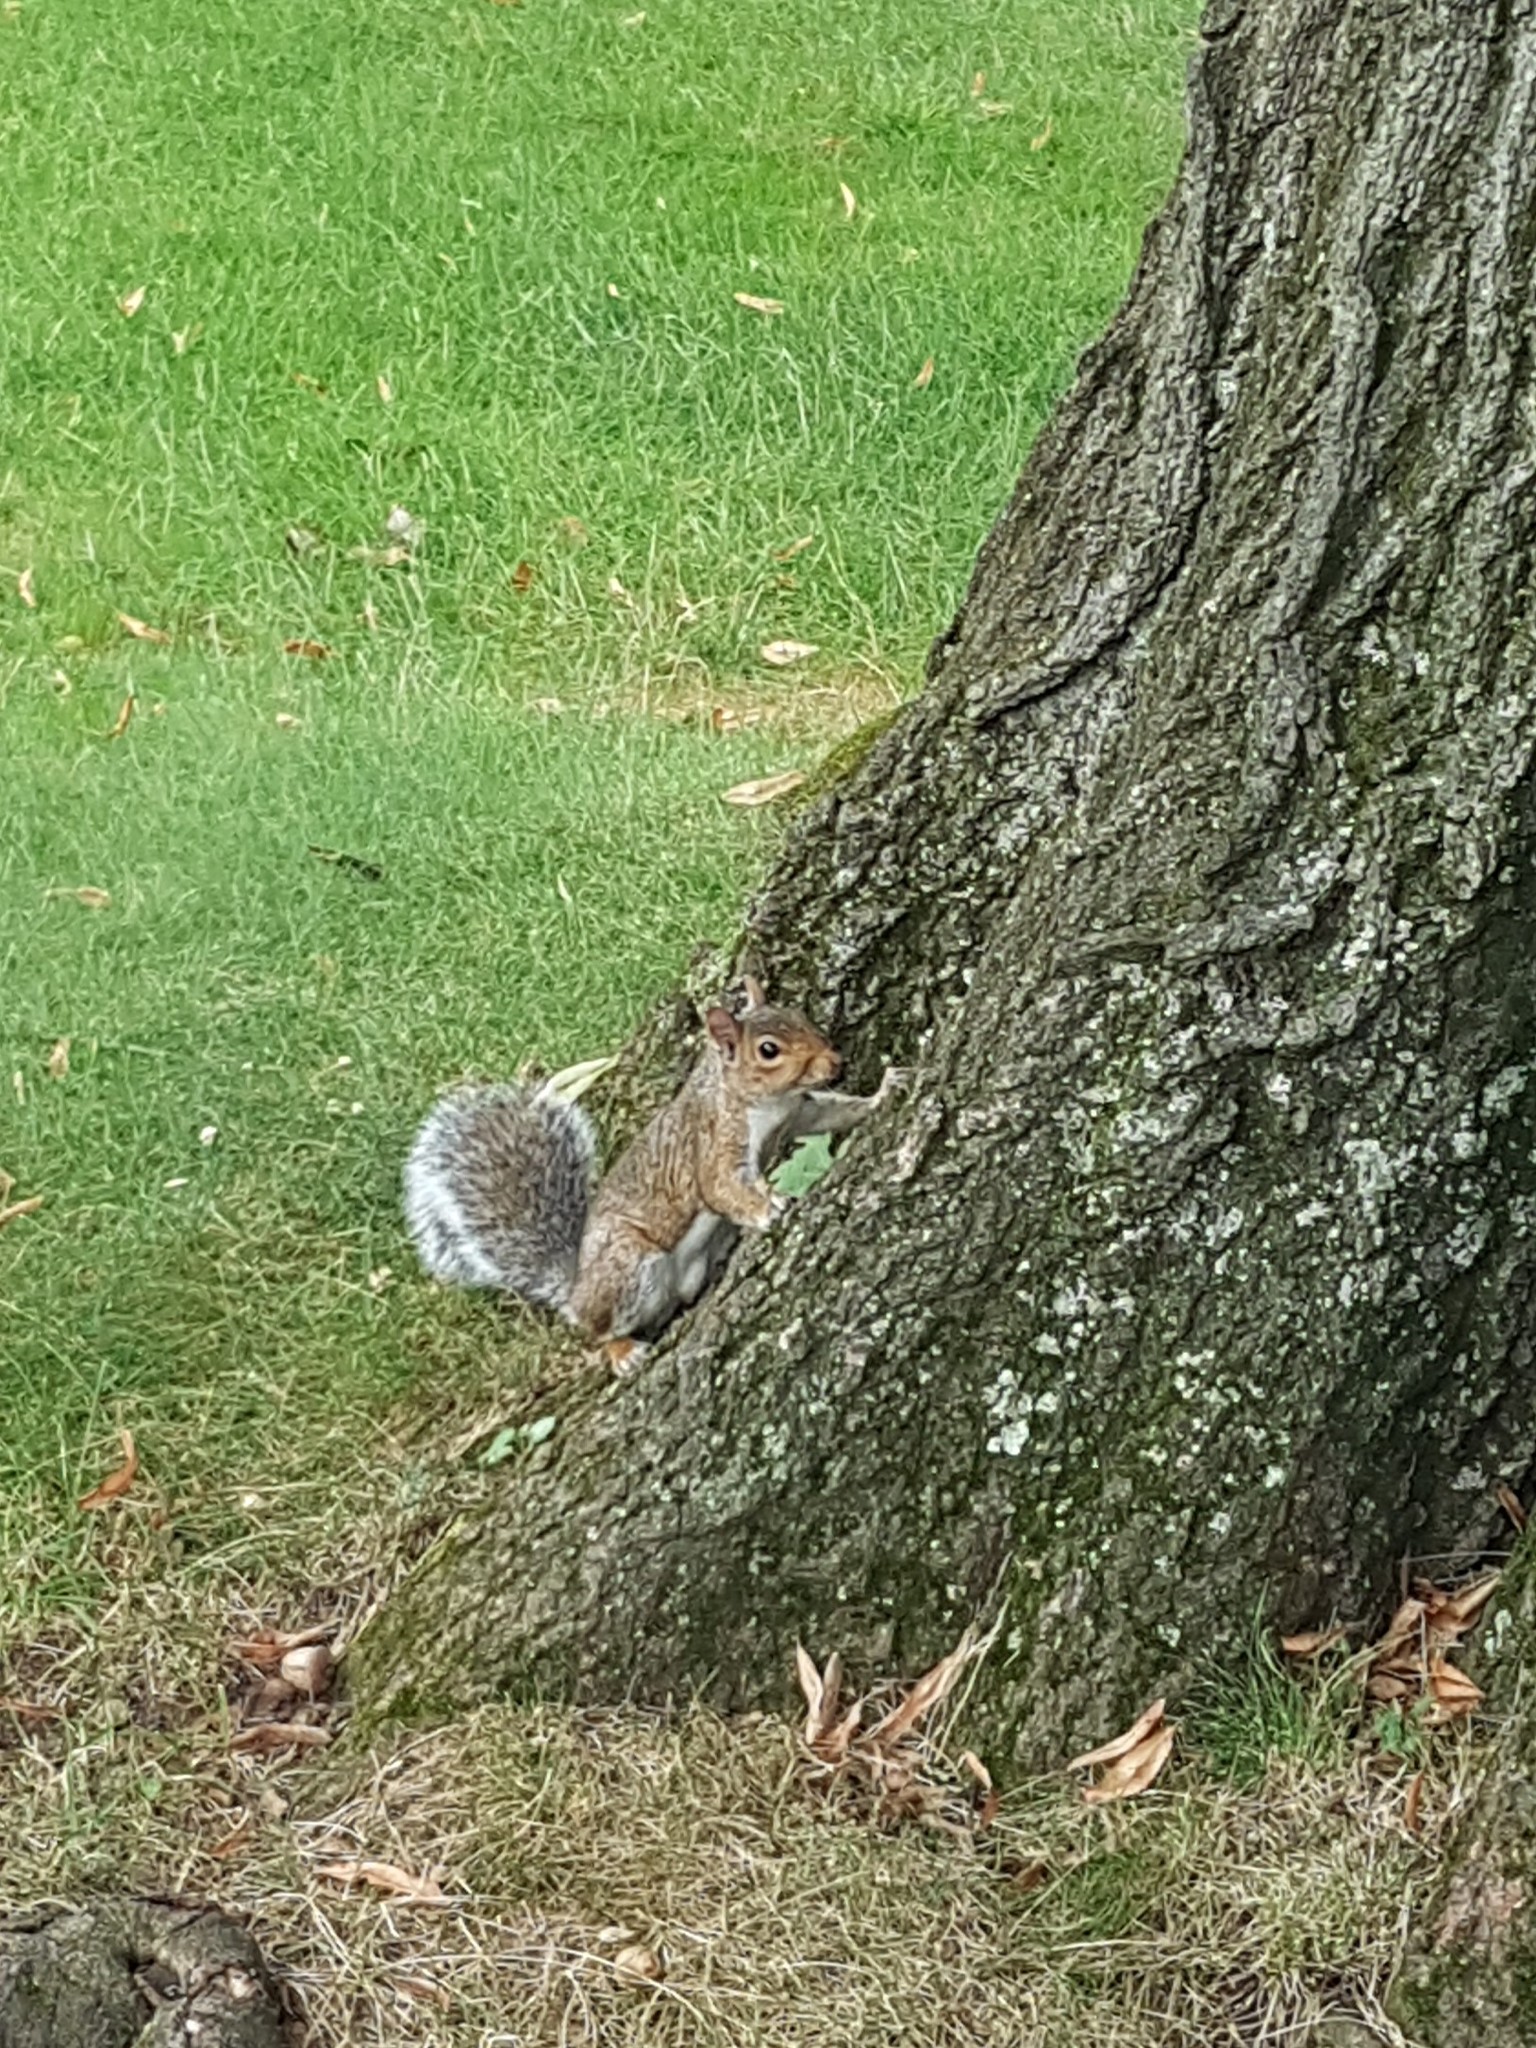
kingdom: Animalia
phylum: Chordata
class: Mammalia
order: Rodentia
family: Sciuridae
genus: Sciurus
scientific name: Sciurus carolinensis
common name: Eastern gray squirrel
